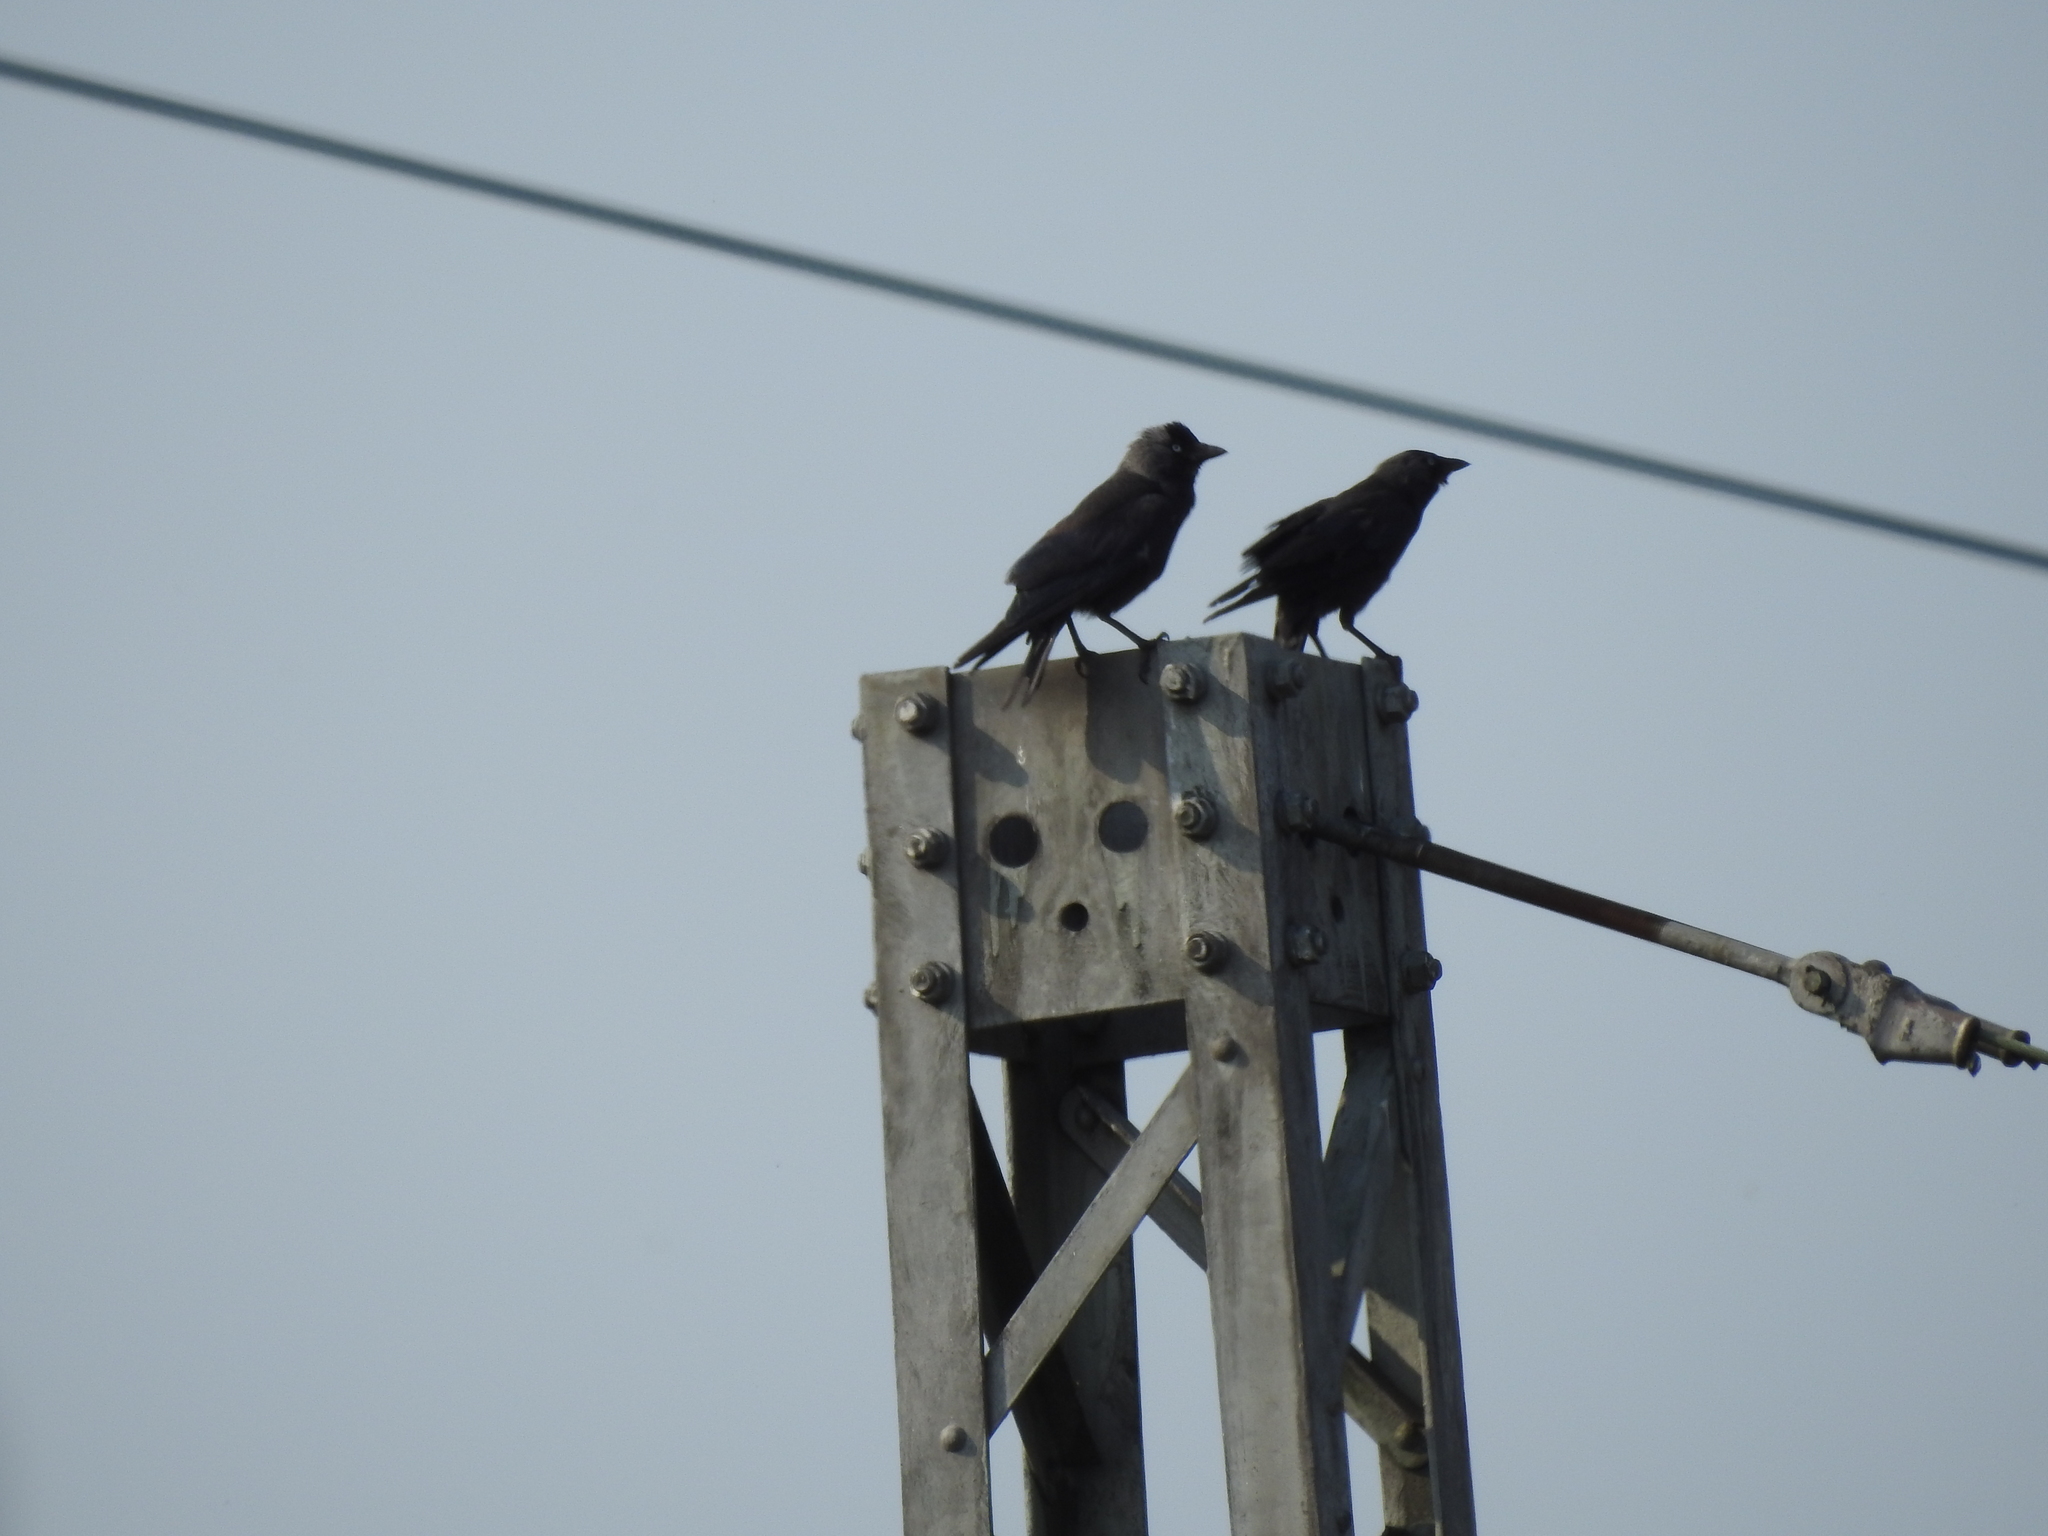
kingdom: Animalia
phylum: Chordata
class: Aves
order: Passeriformes
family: Corvidae
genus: Coloeus
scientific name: Coloeus monedula
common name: Western jackdaw
